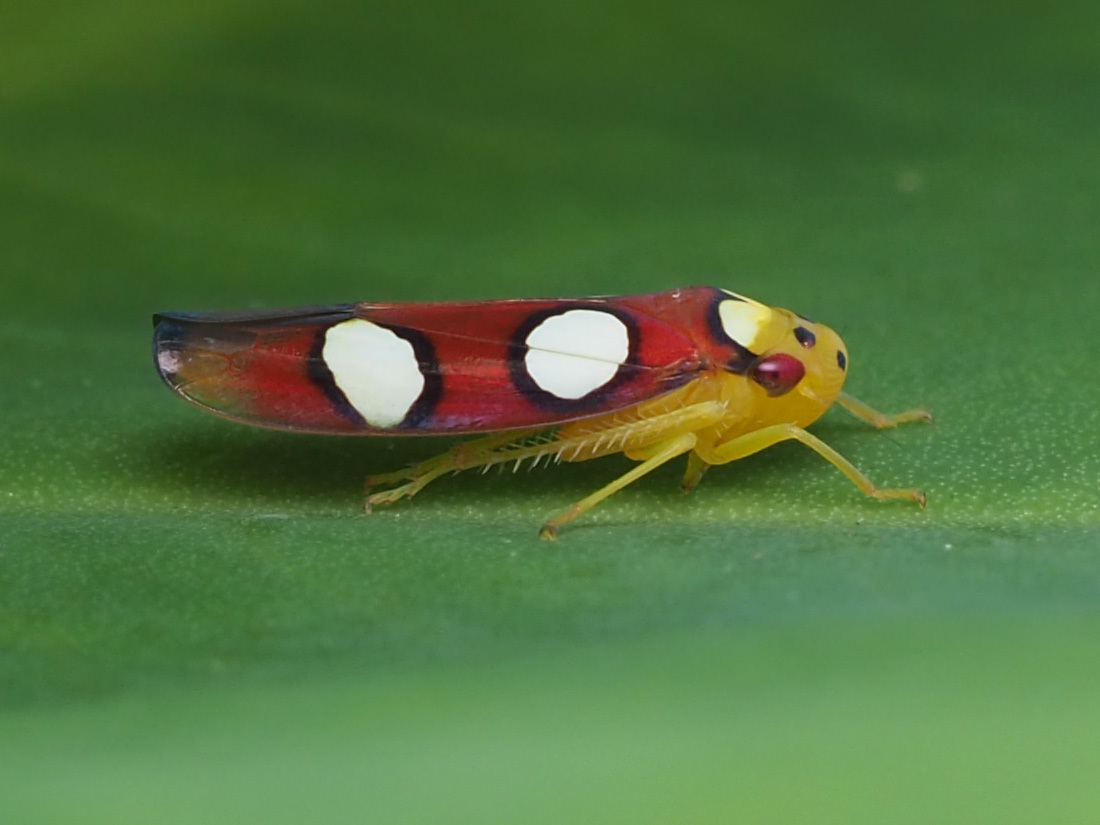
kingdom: Animalia
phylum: Arthropoda
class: Insecta
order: Hemiptera
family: Cicadellidae
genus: Erythrogonia
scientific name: Erythrogonia laudata
